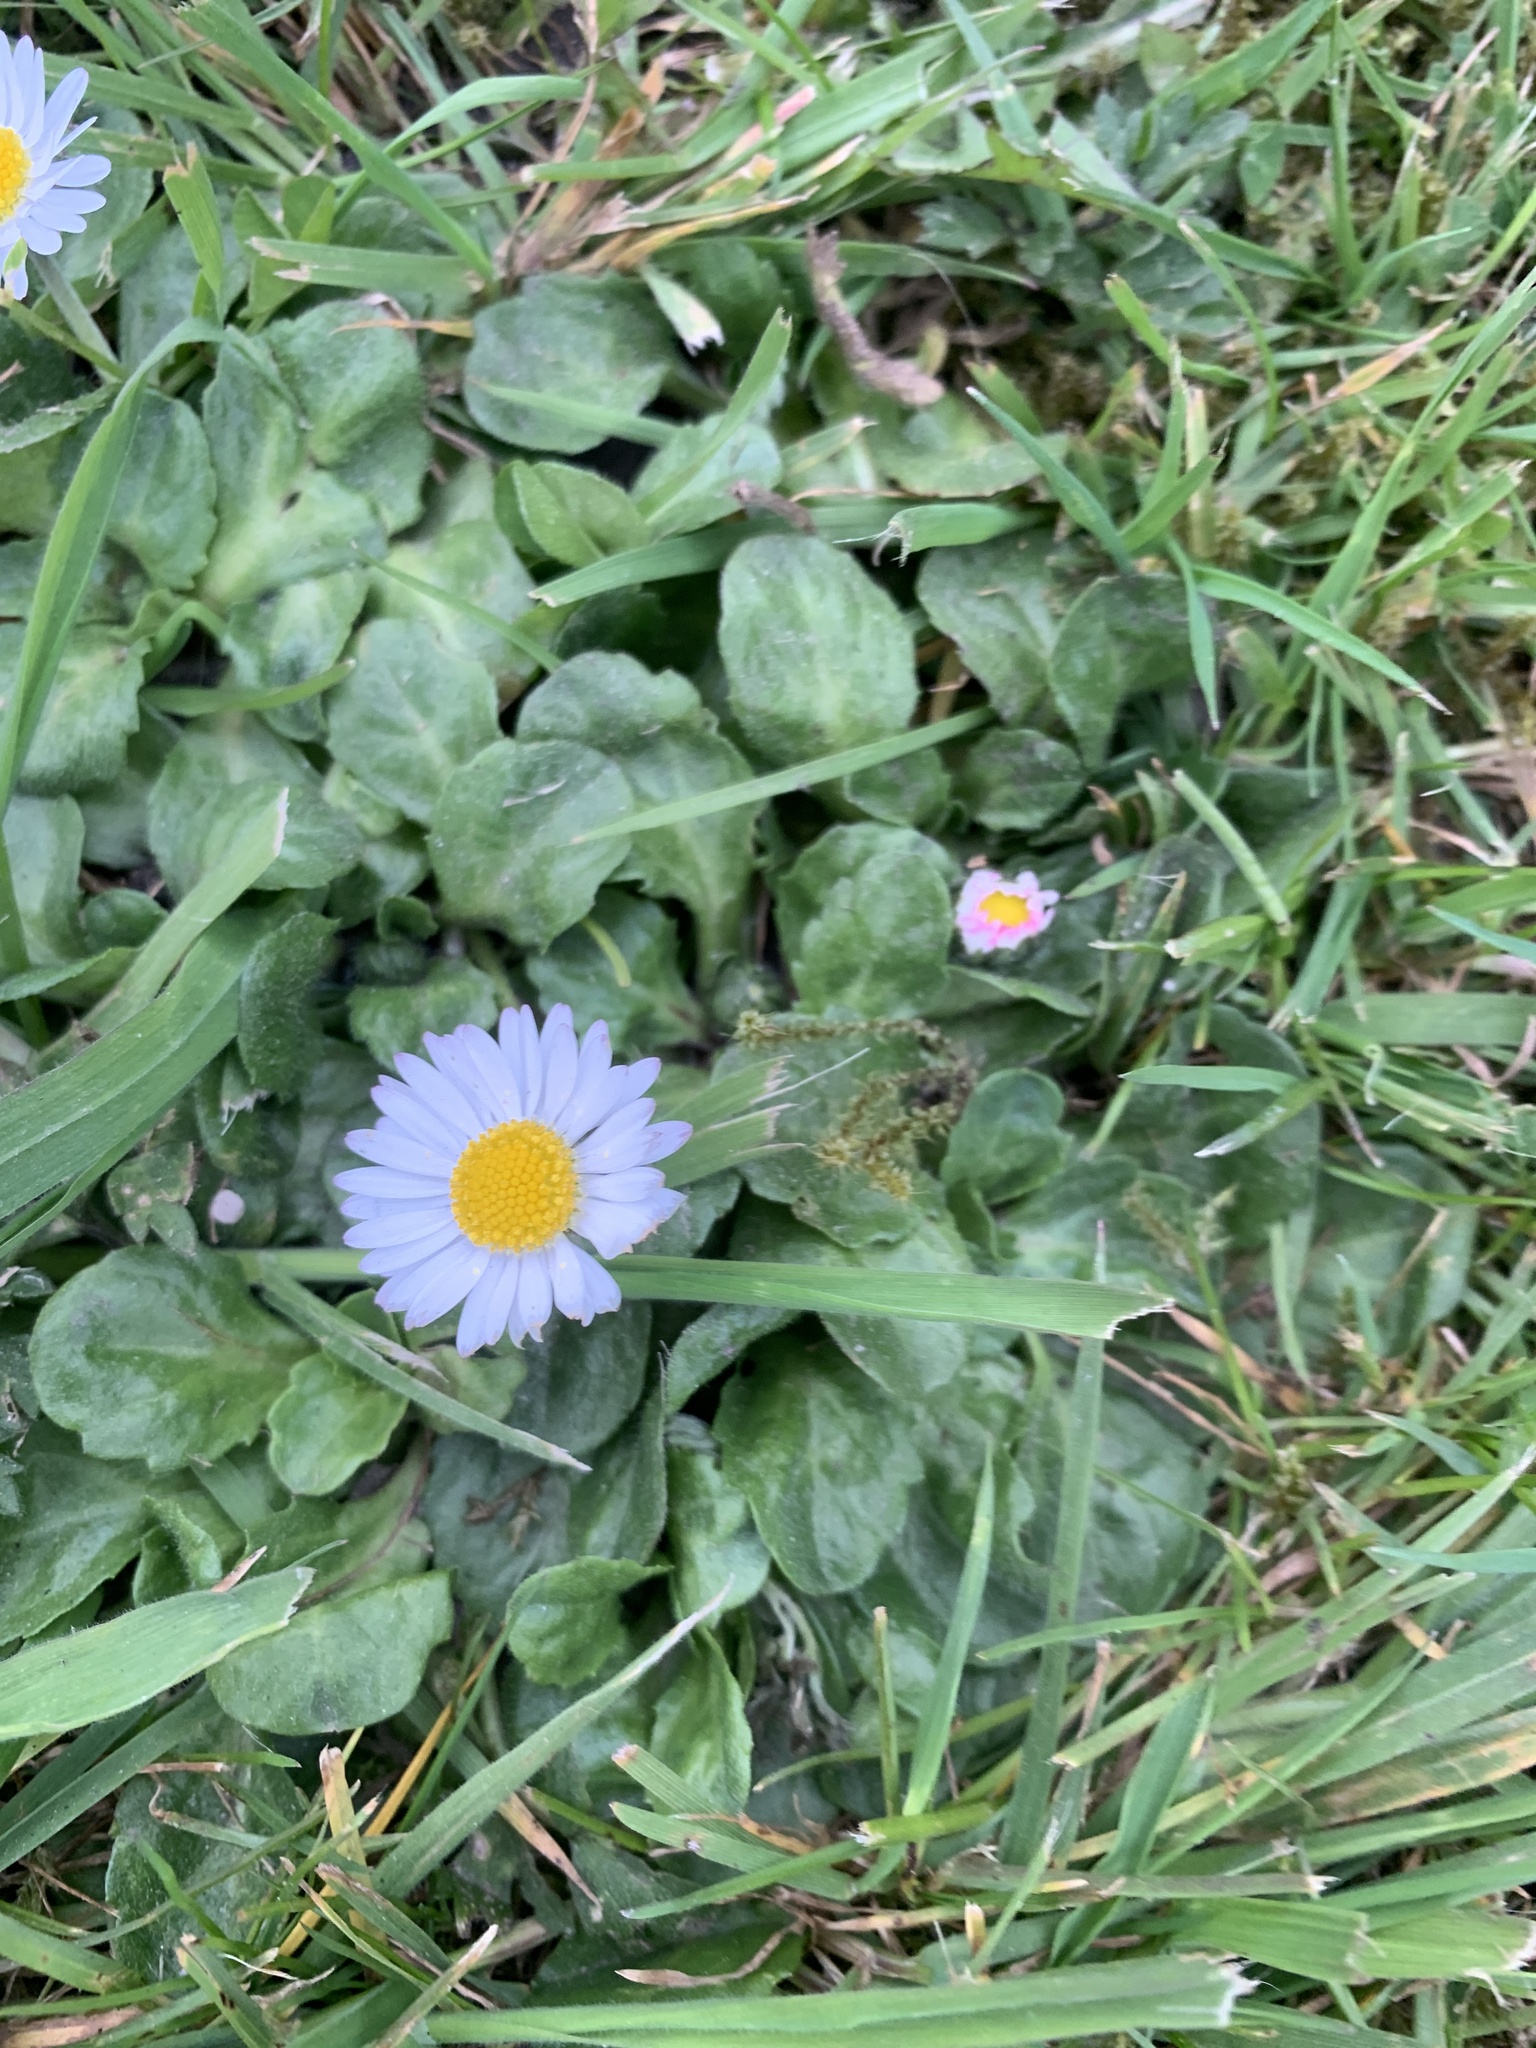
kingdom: Plantae
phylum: Tracheophyta
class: Magnoliopsida
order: Asterales
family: Asteraceae
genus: Bellis
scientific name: Bellis perennis
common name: Lawndaisy
